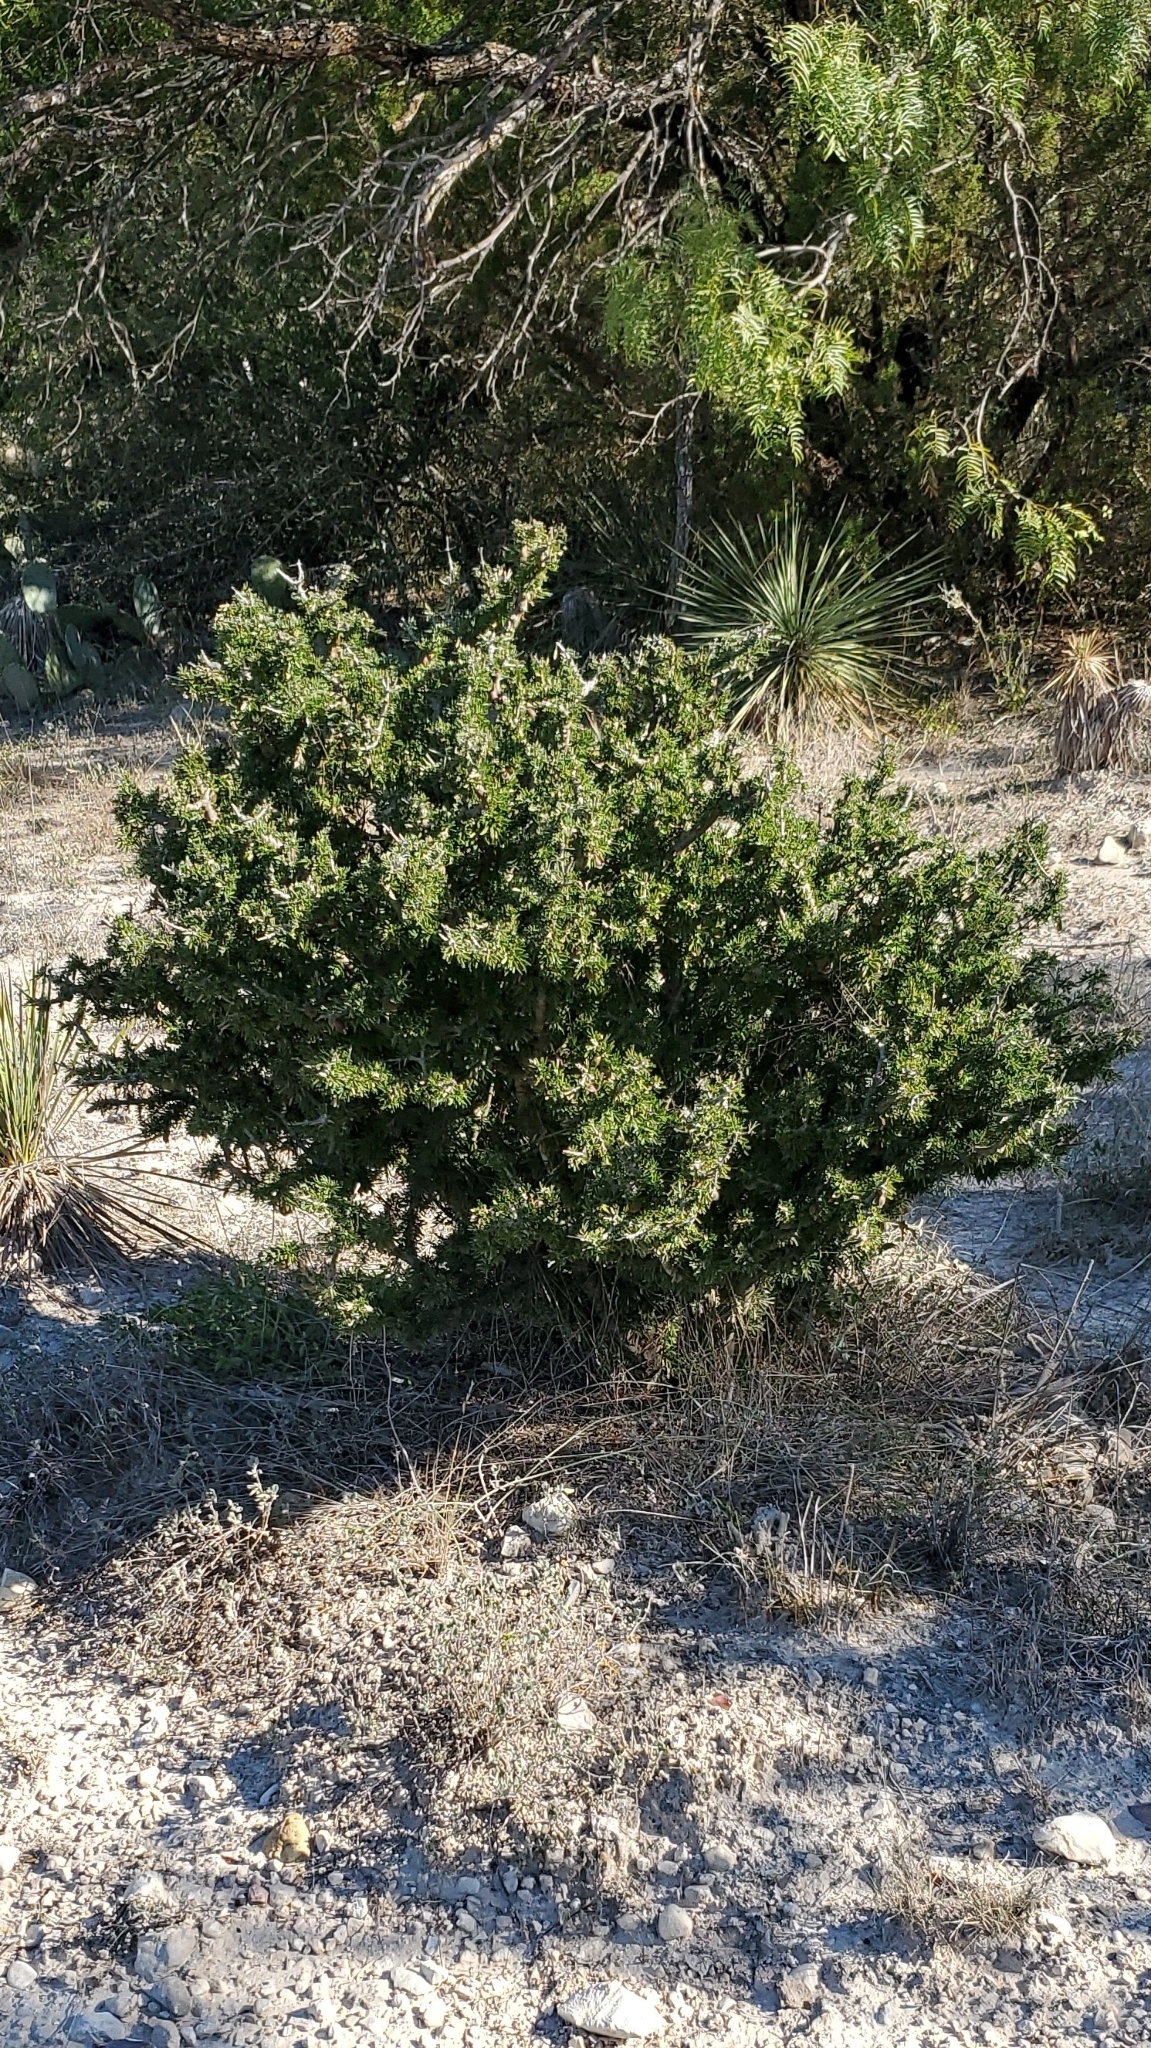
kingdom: Plantae
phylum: Tracheophyta
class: Magnoliopsida
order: Zygophyllales
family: Zygophyllaceae
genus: Porlieria
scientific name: Porlieria angustifolia
